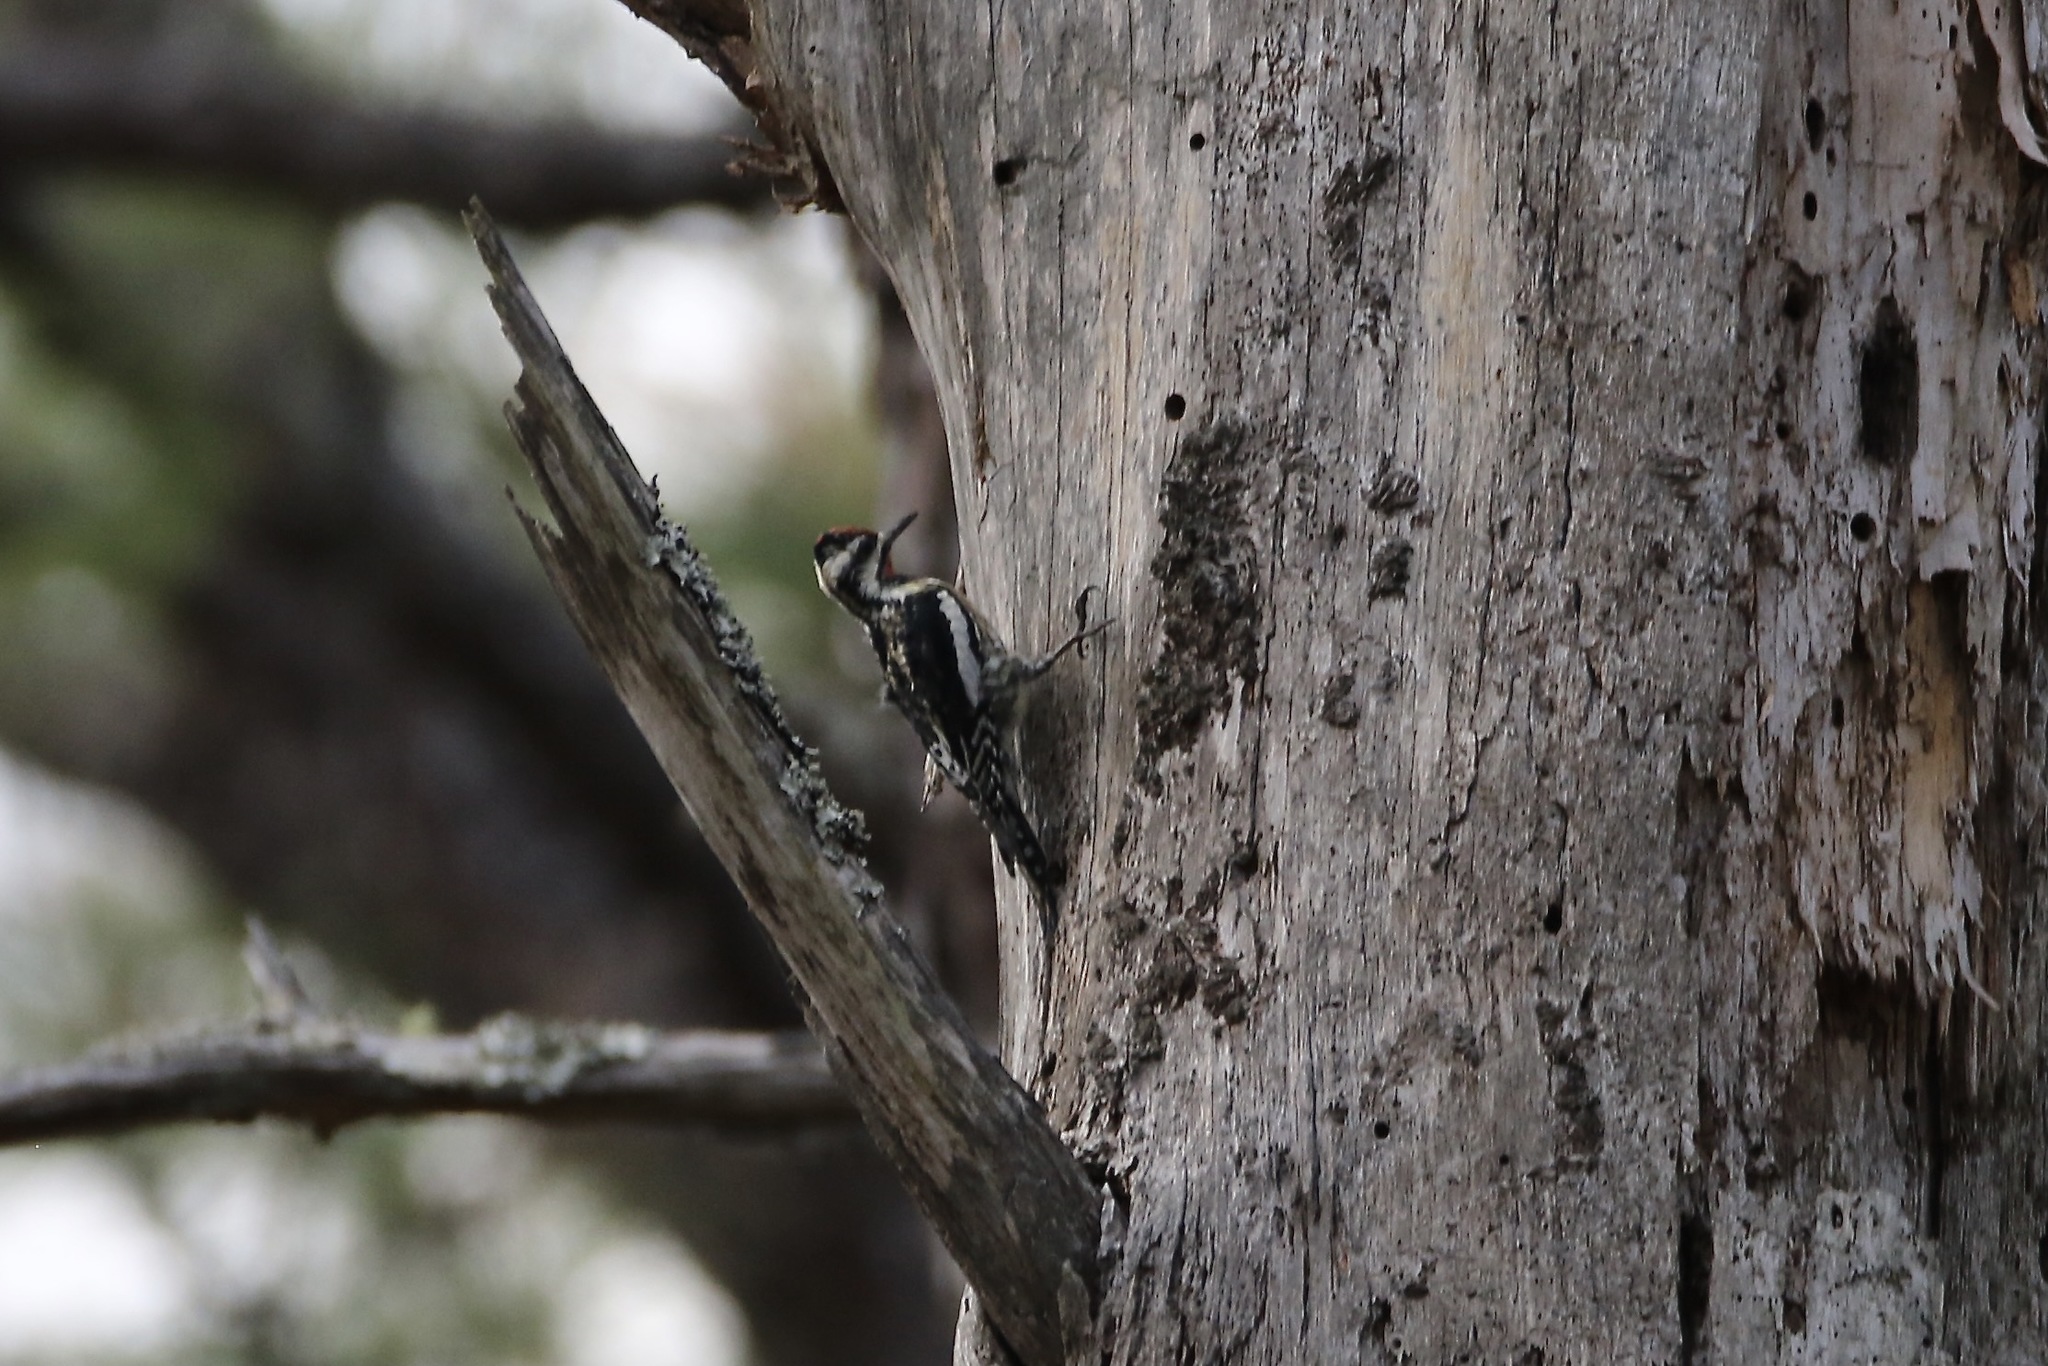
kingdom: Animalia
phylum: Chordata
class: Aves
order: Piciformes
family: Picidae
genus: Sphyrapicus
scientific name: Sphyrapicus varius
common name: Yellow-bellied sapsucker
